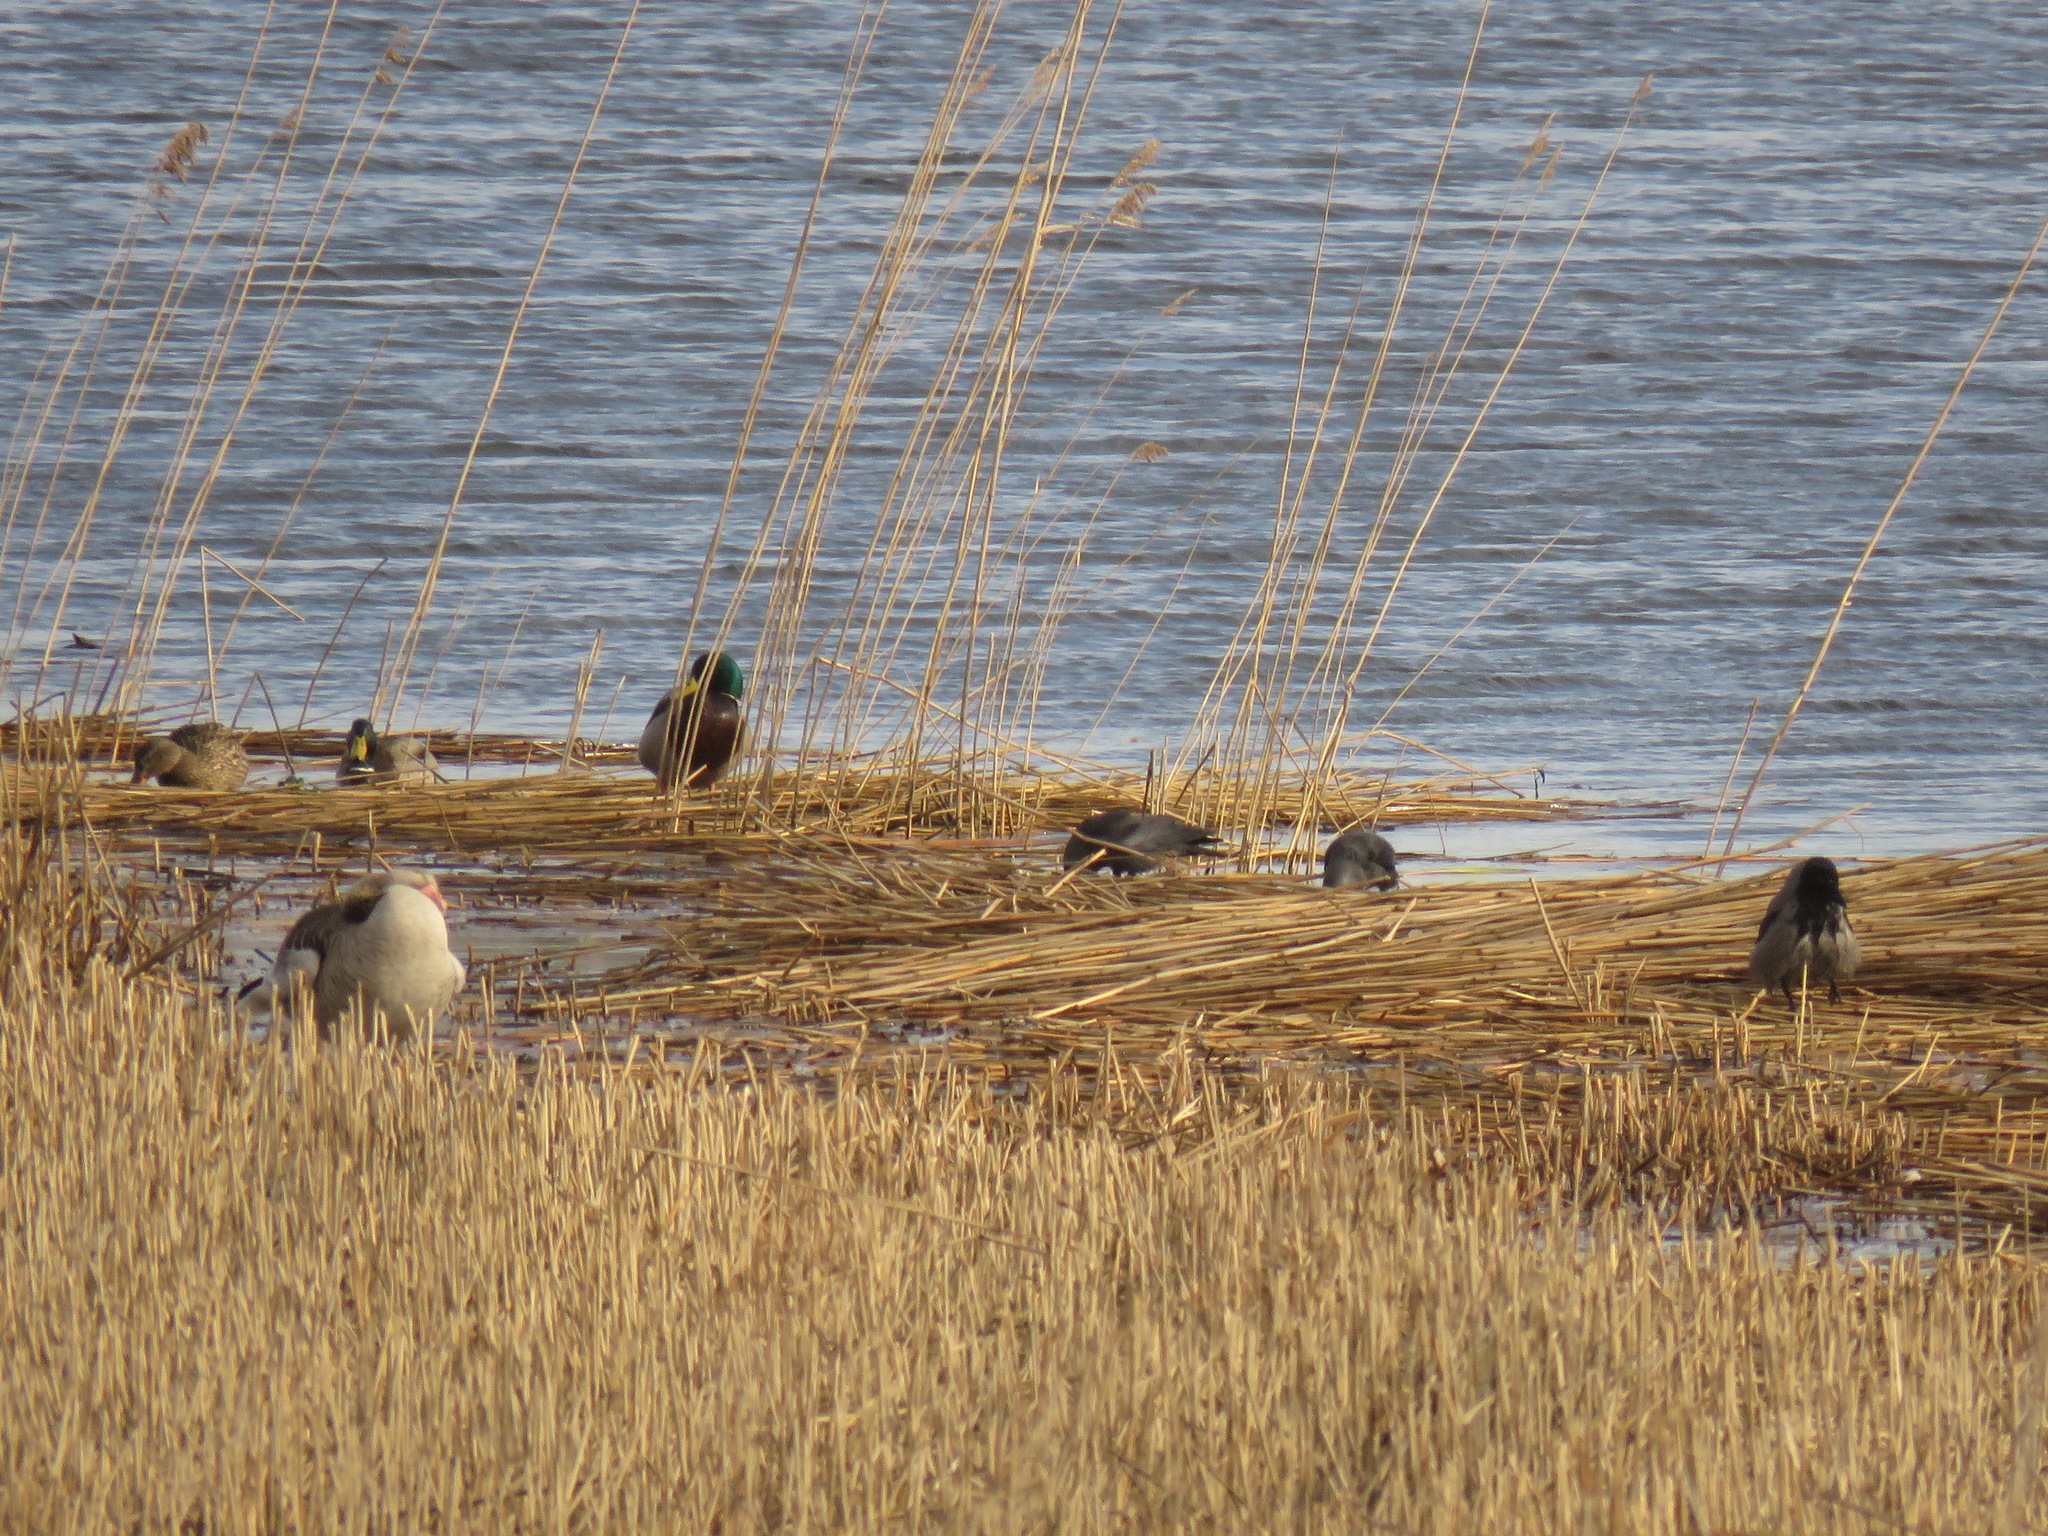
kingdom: Animalia
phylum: Chordata
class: Aves
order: Passeriformes
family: Corvidae
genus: Corvus
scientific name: Corvus cornix
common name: Hooded crow
